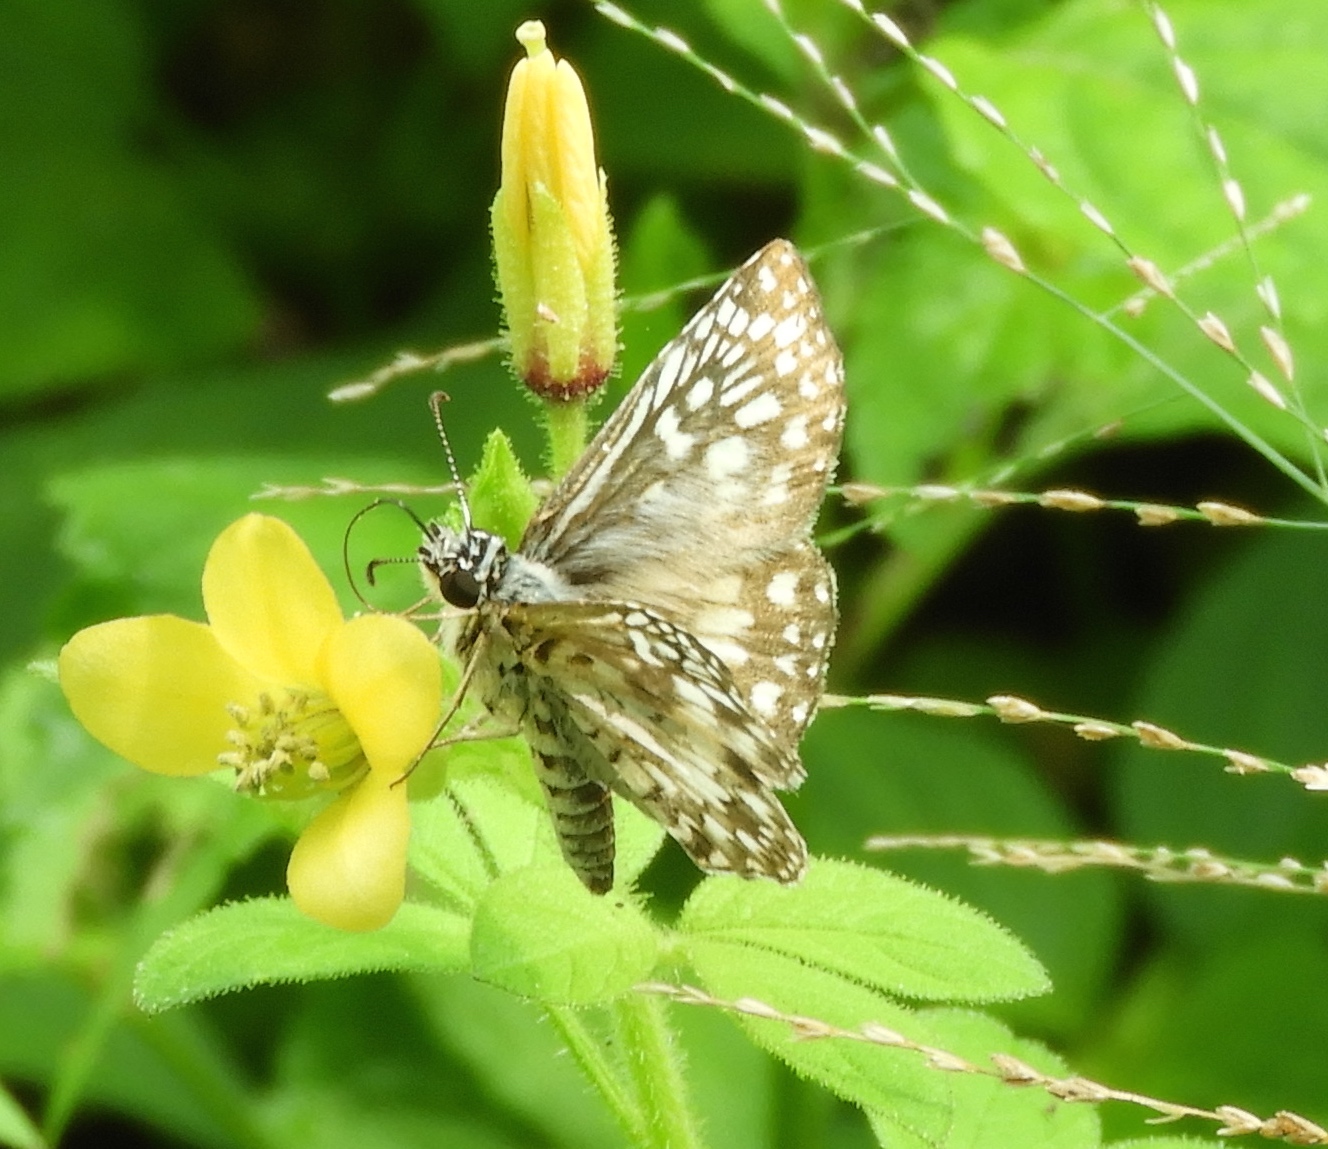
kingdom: Animalia
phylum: Arthropoda
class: Insecta
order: Lepidoptera
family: Hesperiidae
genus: Pyrgus
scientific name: Pyrgus oileus
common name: Tropical checkered-skipper
